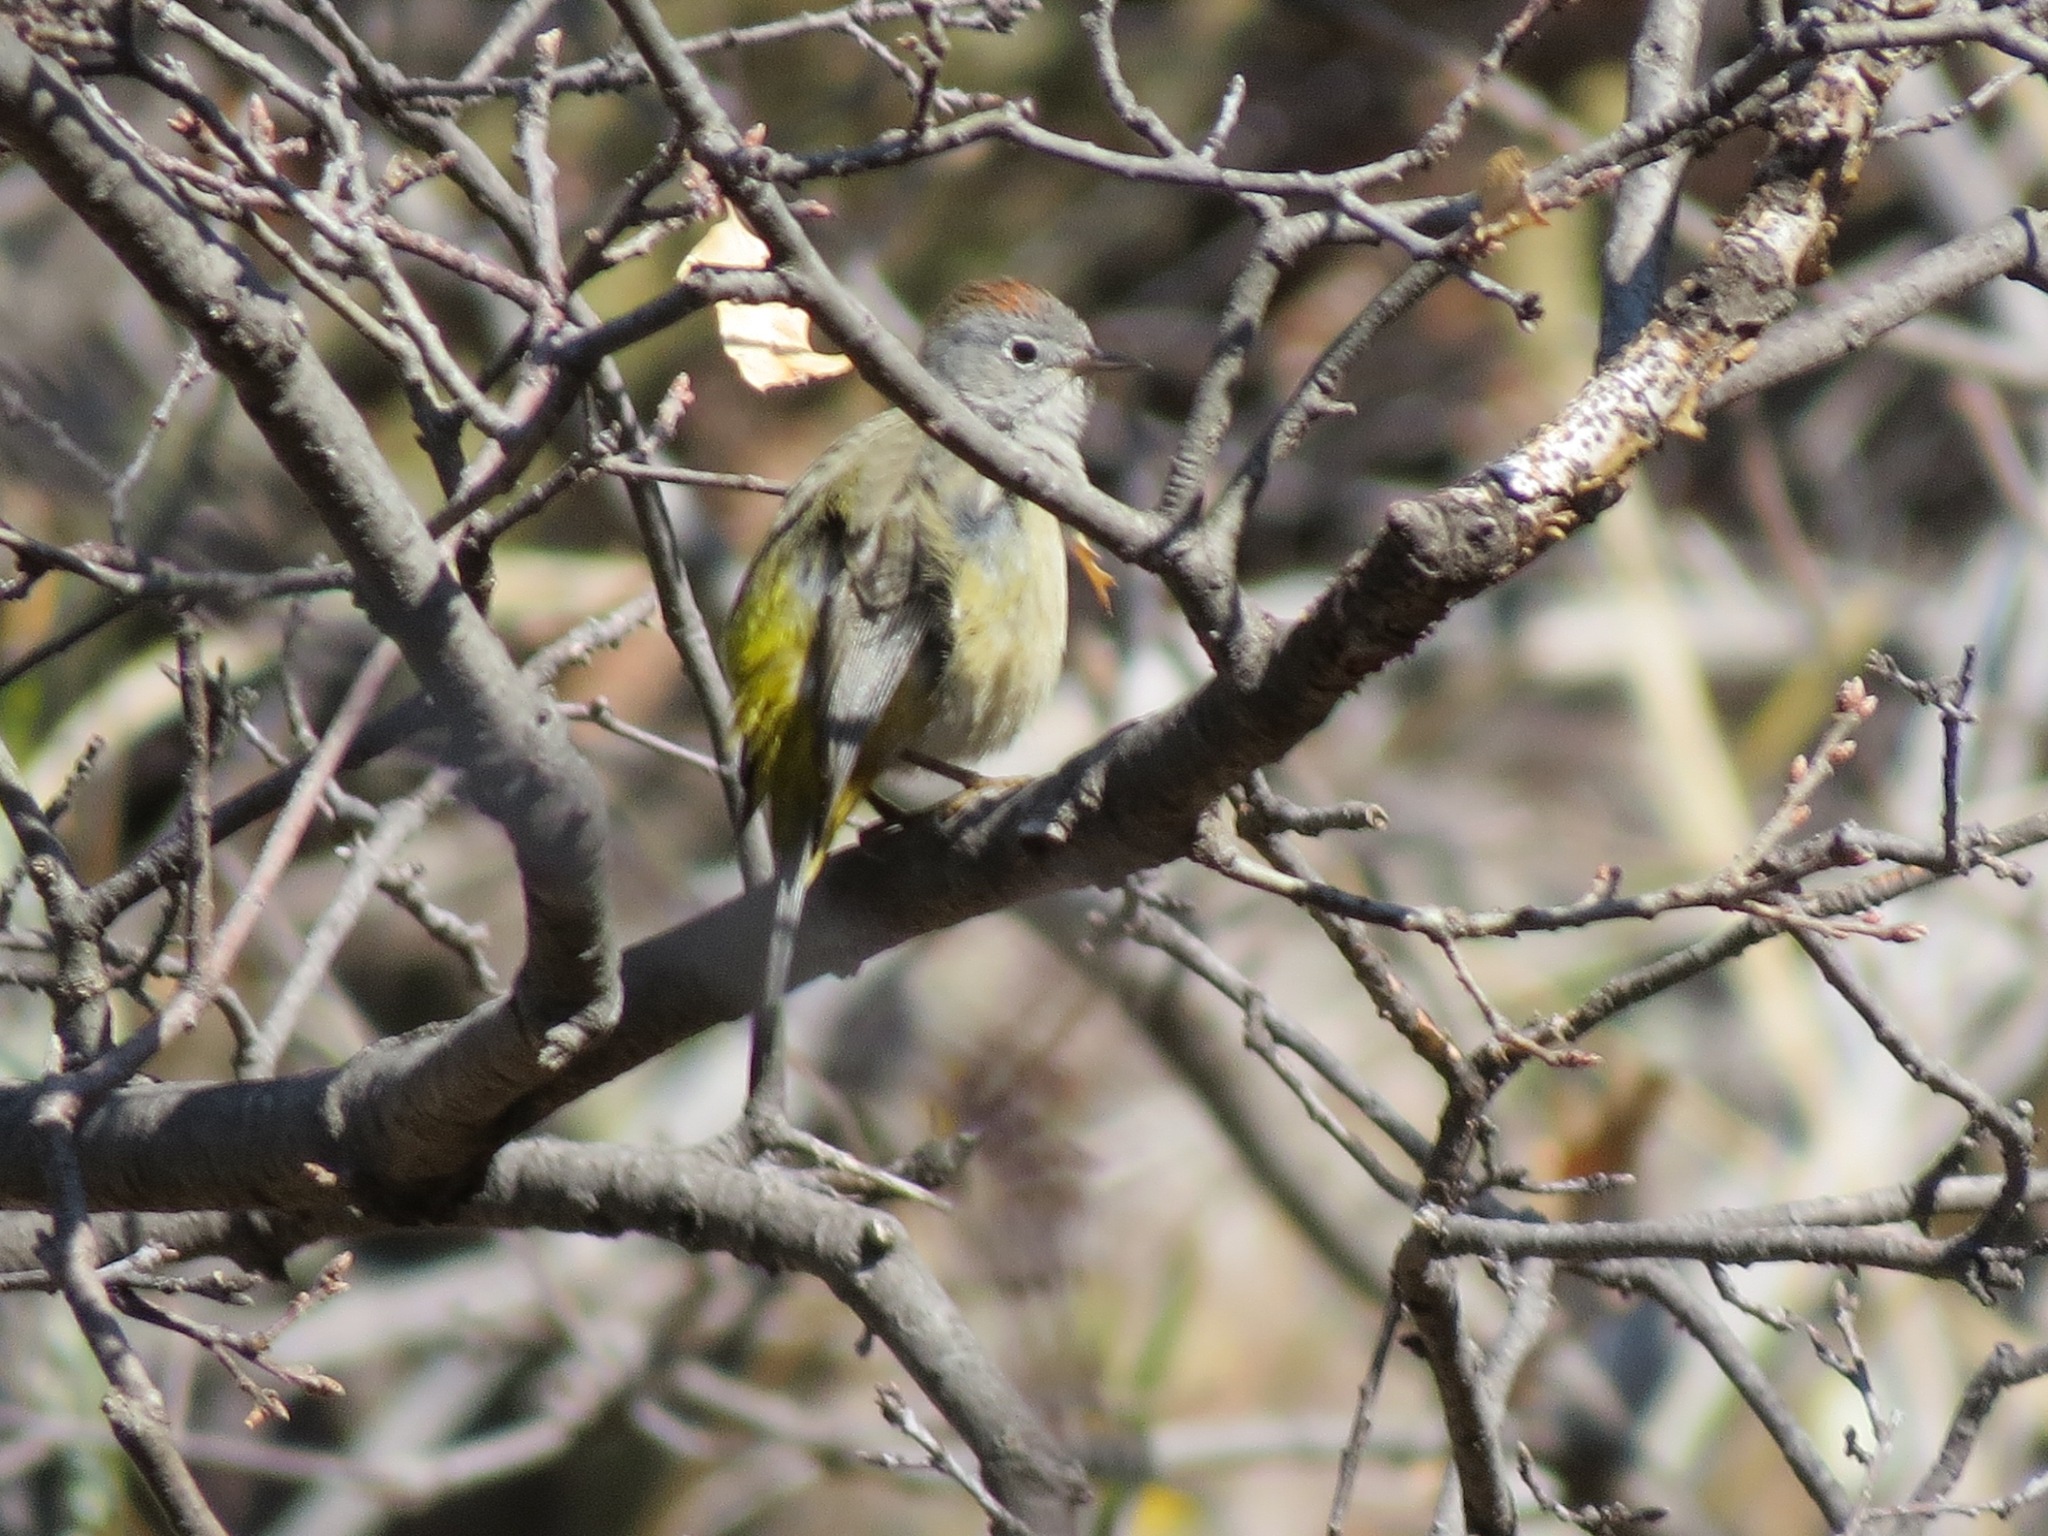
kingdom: Animalia
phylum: Chordata
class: Aves
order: Passeriformes
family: Parulidae
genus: Leiothlypis
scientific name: Leiothlypis crissalis
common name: Colima warbler
